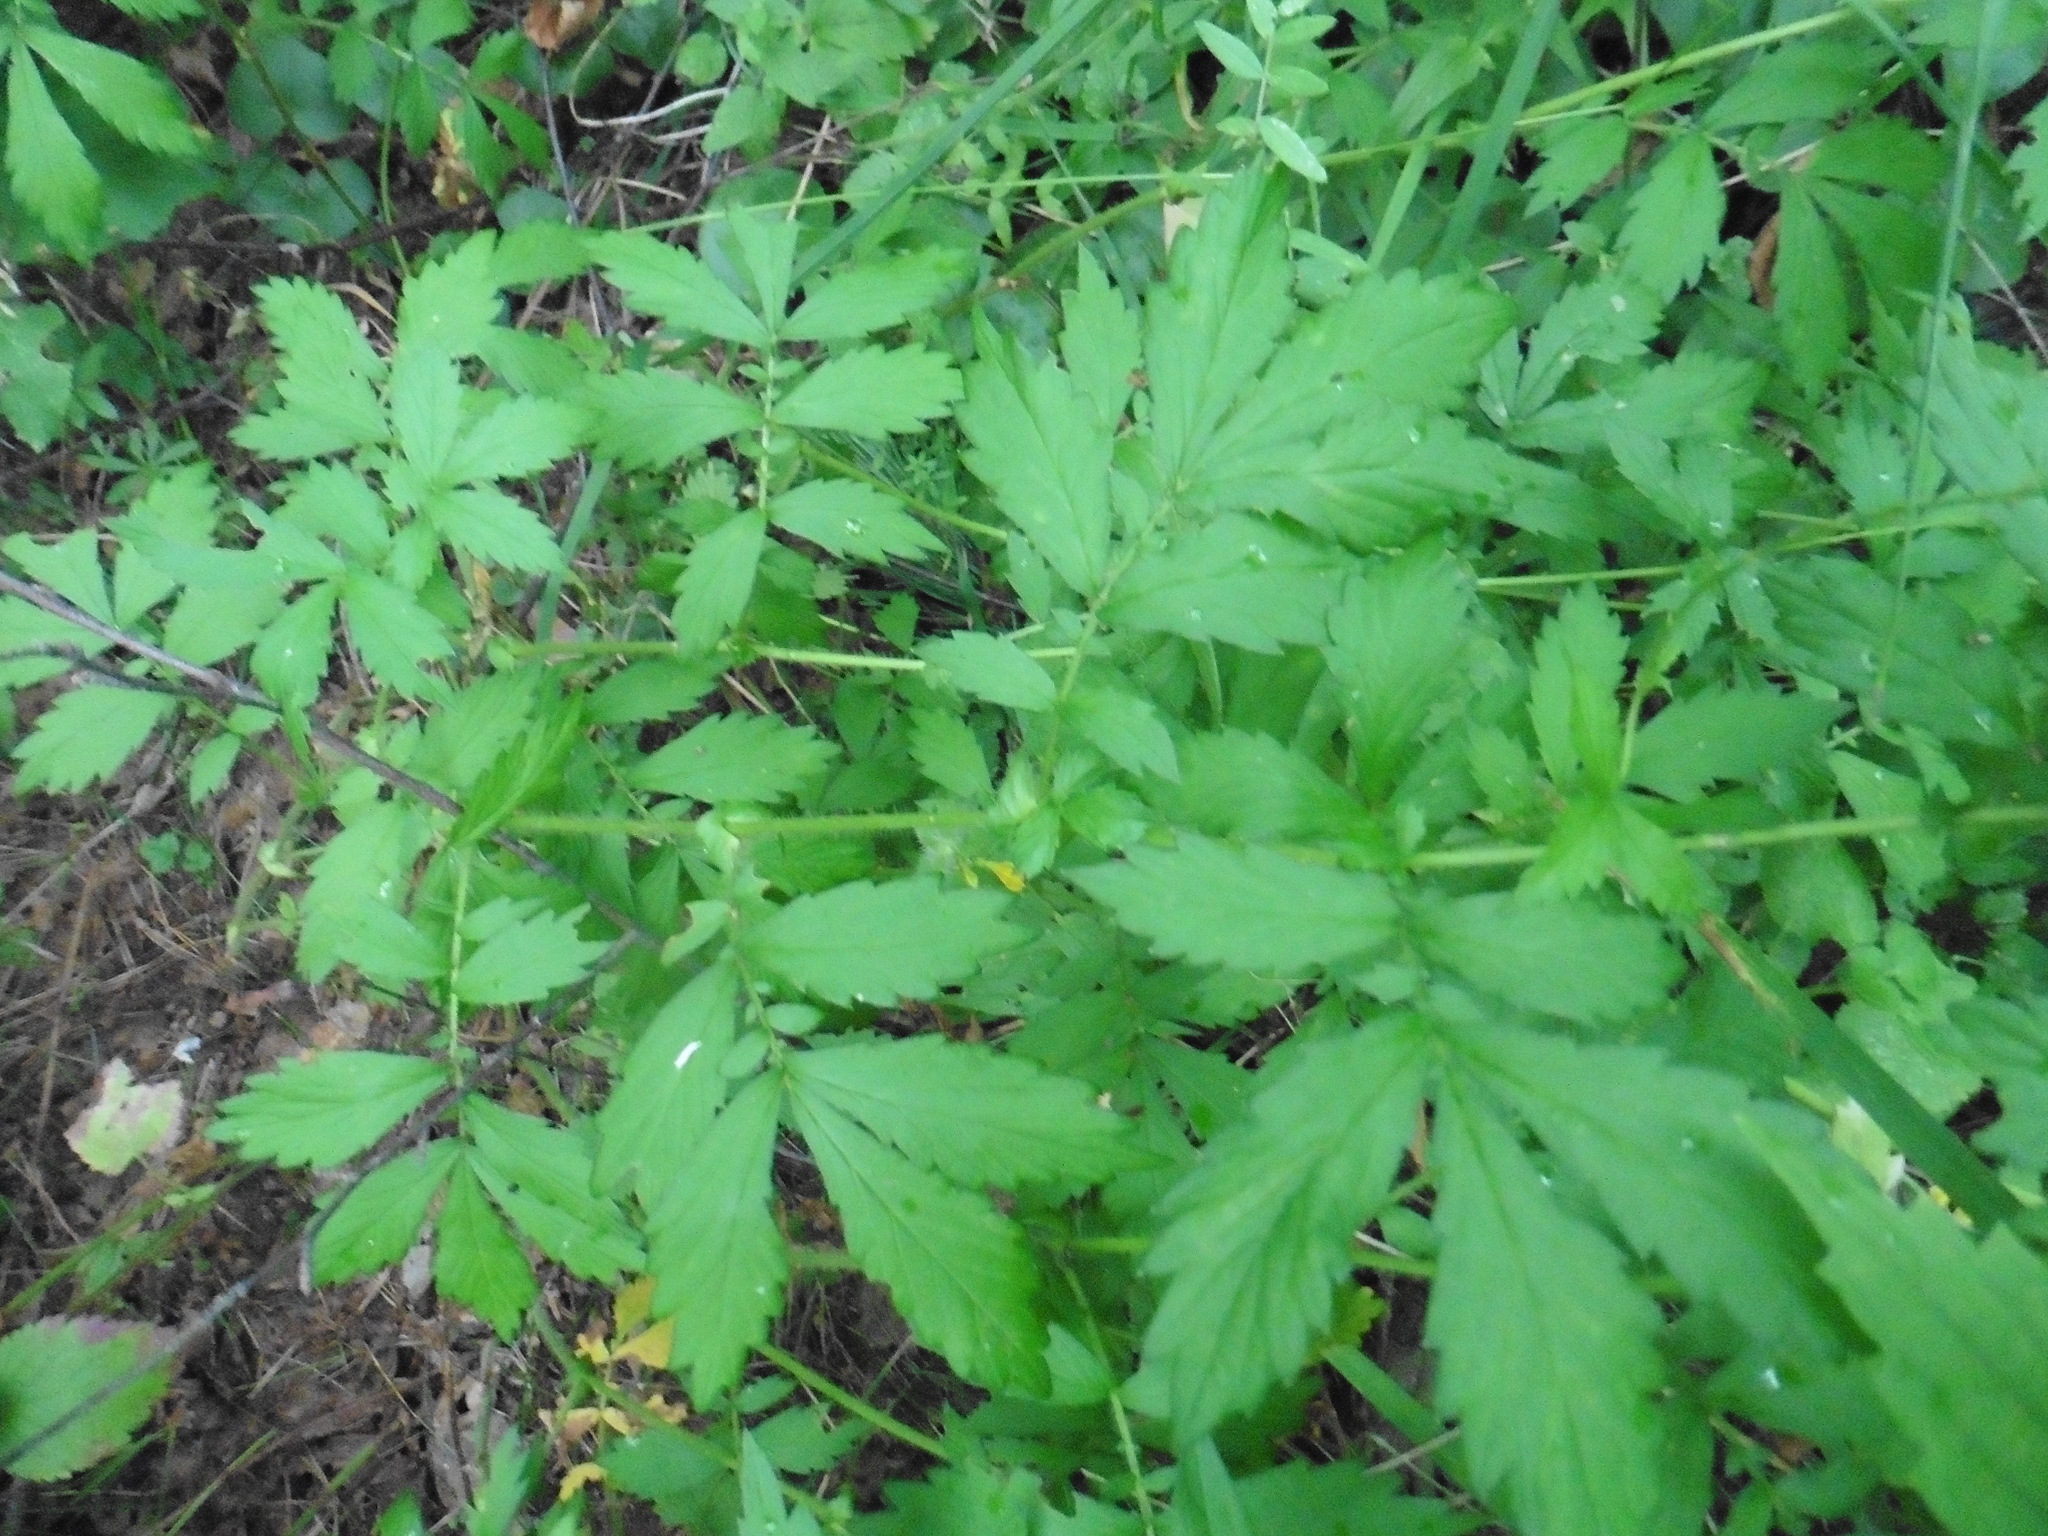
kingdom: Plantae
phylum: Tracheophyta
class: Magnoliopsida
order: Rosales
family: Rosaceae
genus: Agrimonia
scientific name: Agrimonia pilosa
